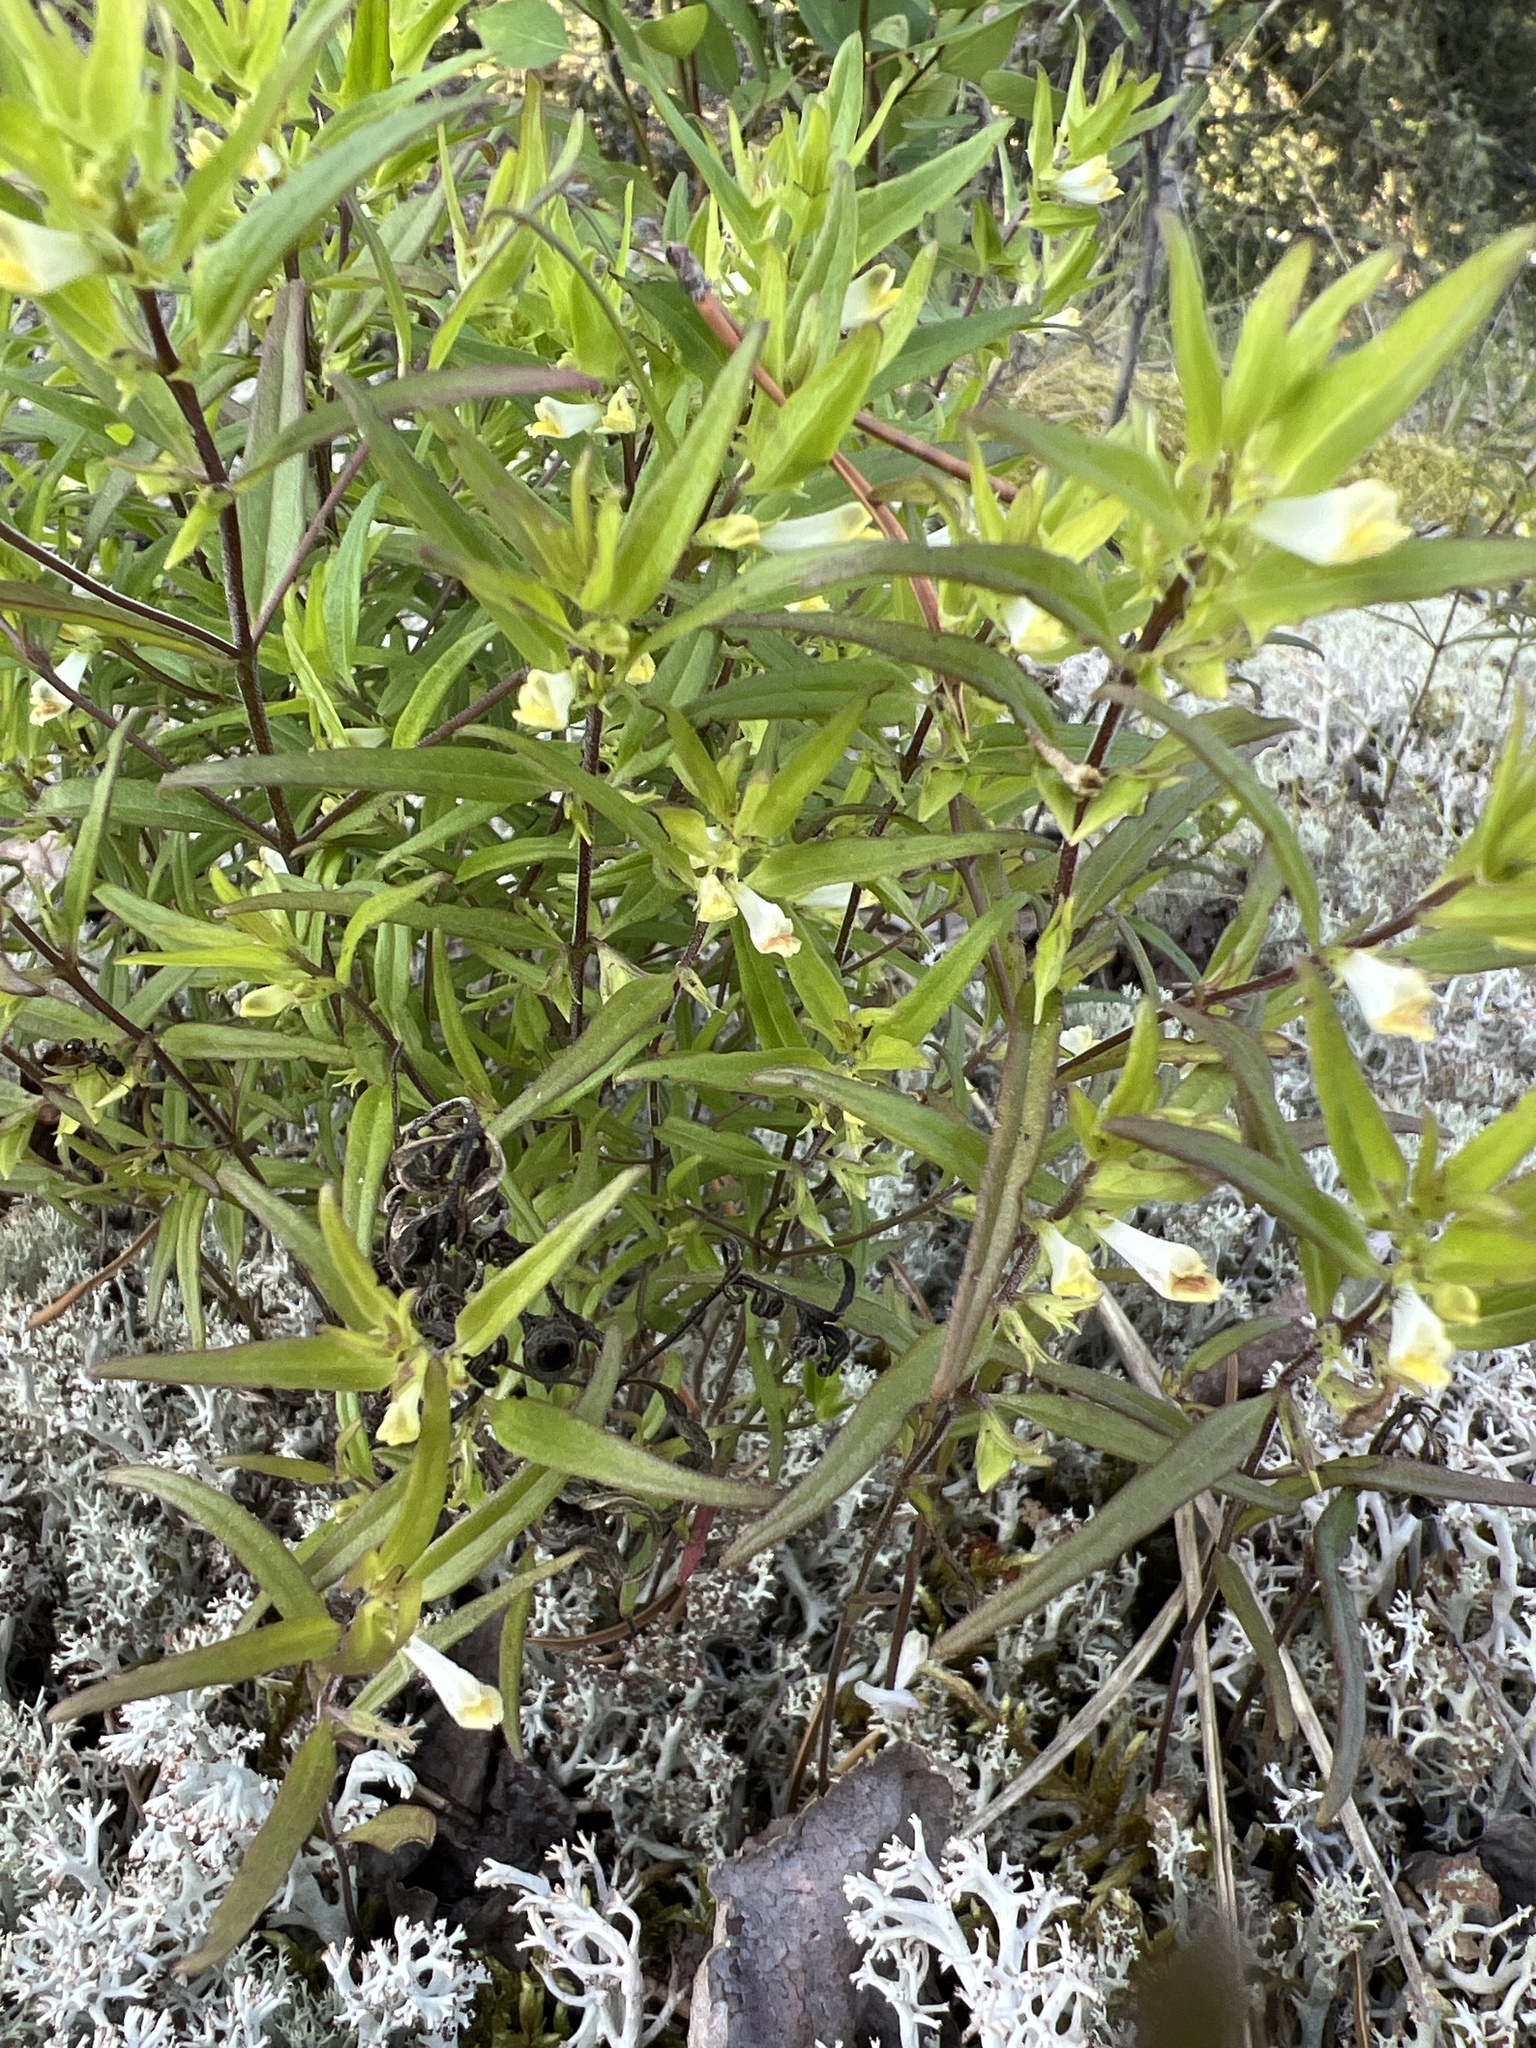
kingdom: Plantae
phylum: Tracheophyta
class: Magnoliopsida
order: Lamiales
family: Orobanchaceae
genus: Melampyrum
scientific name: Melampyrum lineare
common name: American cow-wheat
